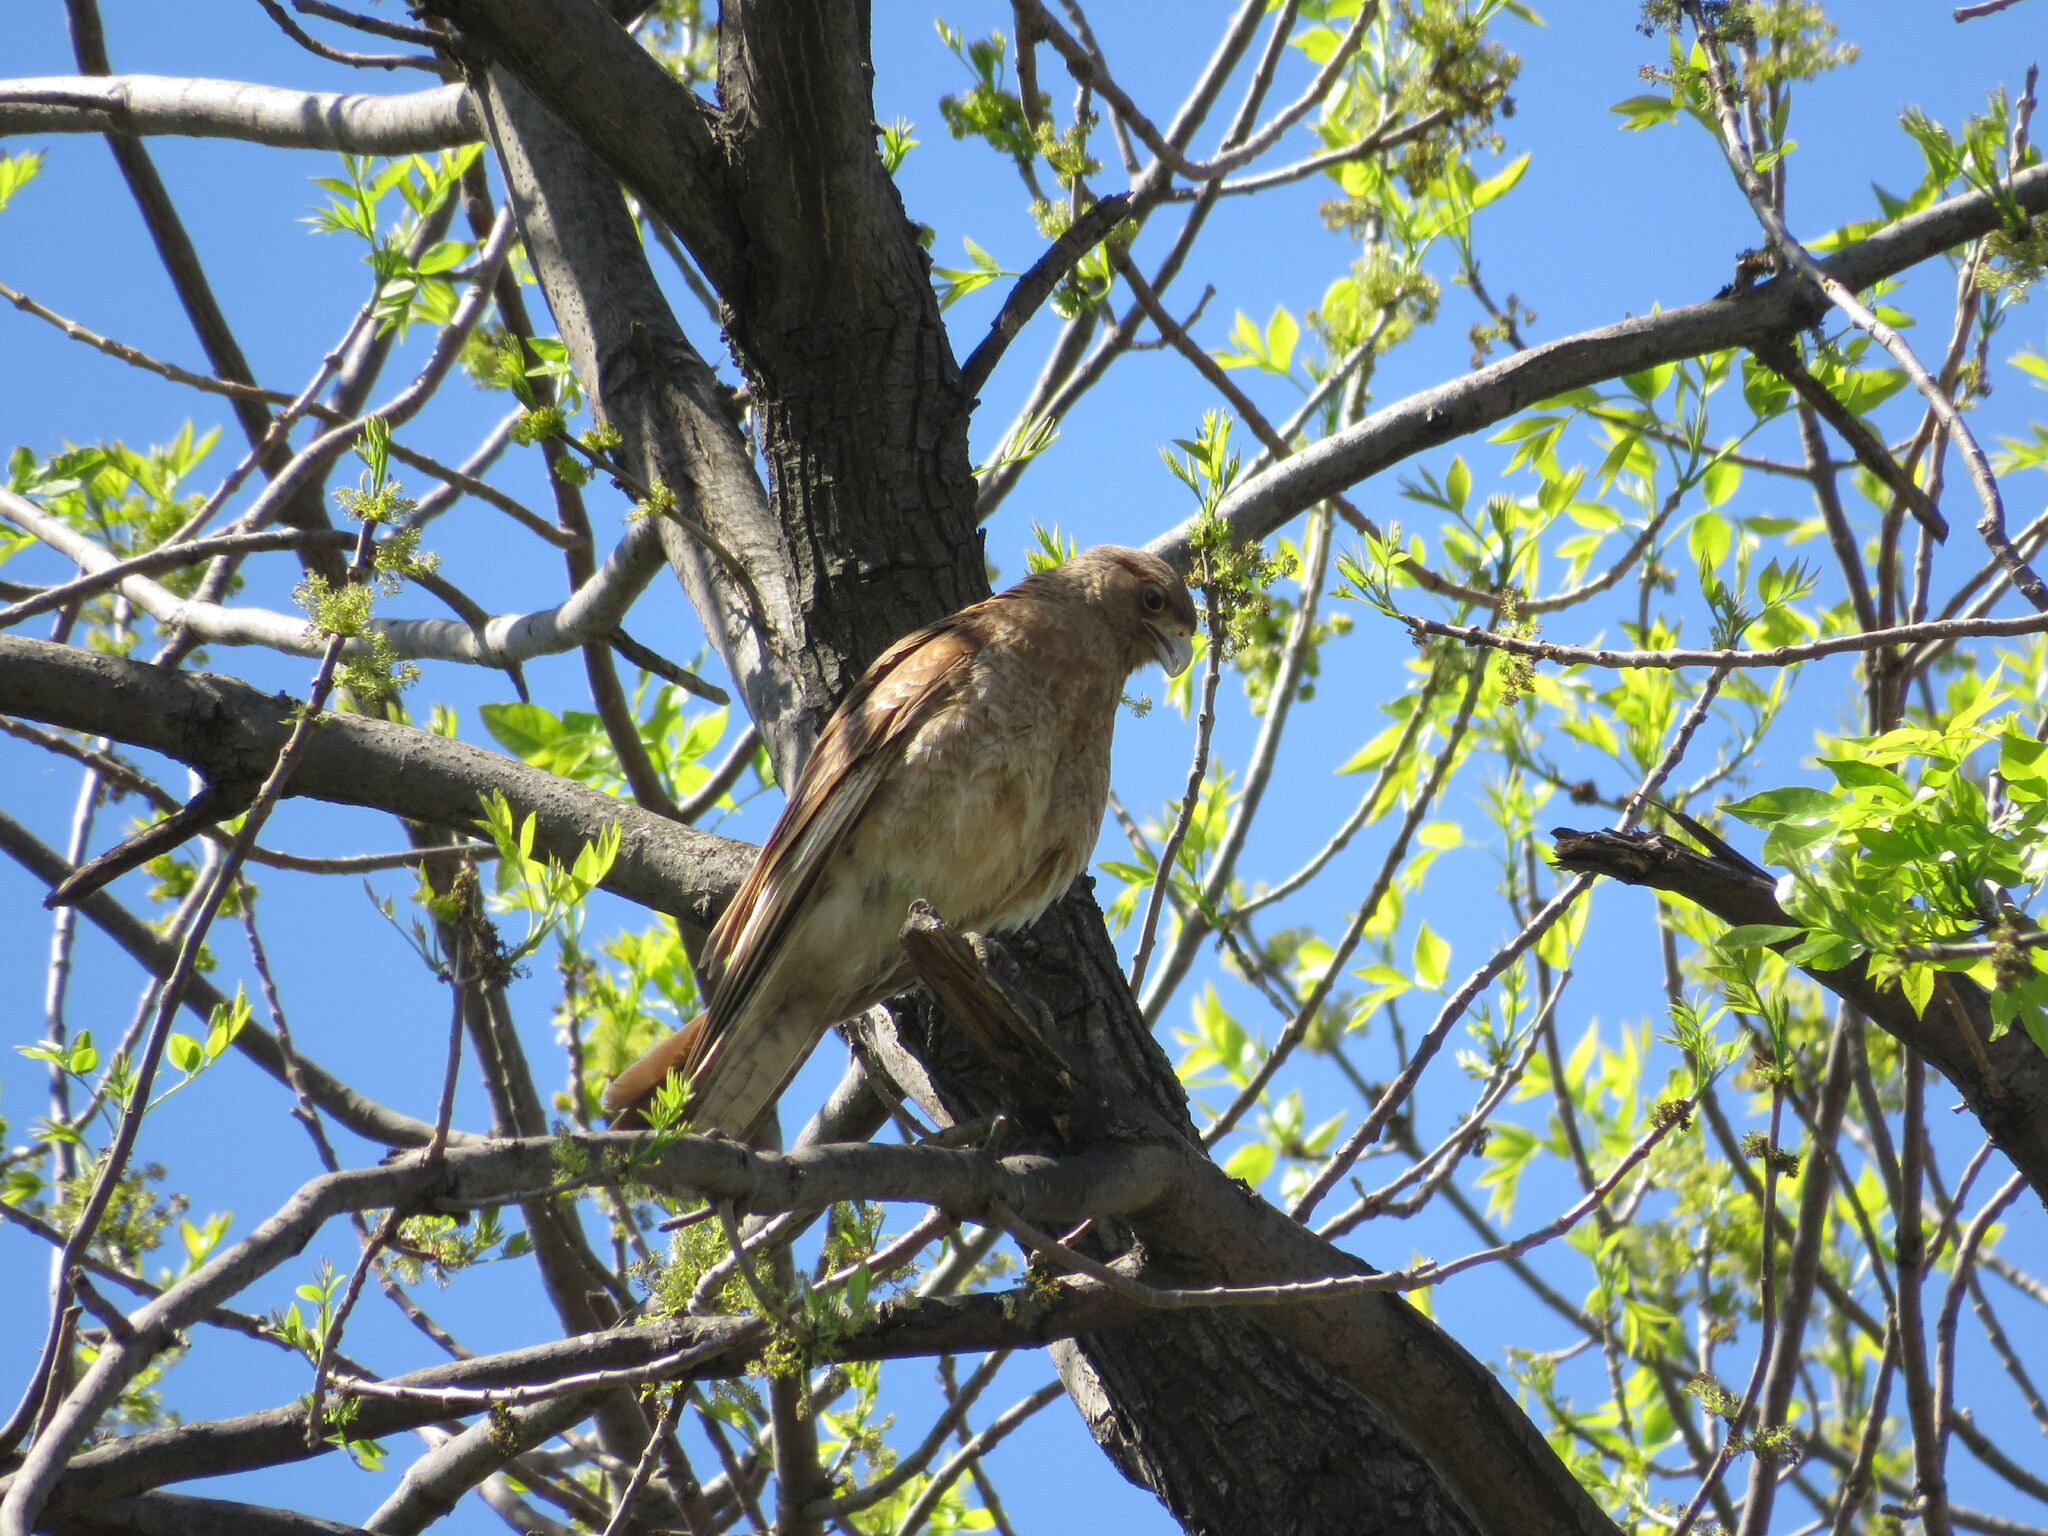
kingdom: Animalia
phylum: Chordata
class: Aves
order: Falconiformes
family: Falconidae
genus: Daptrius
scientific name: Daptrius
